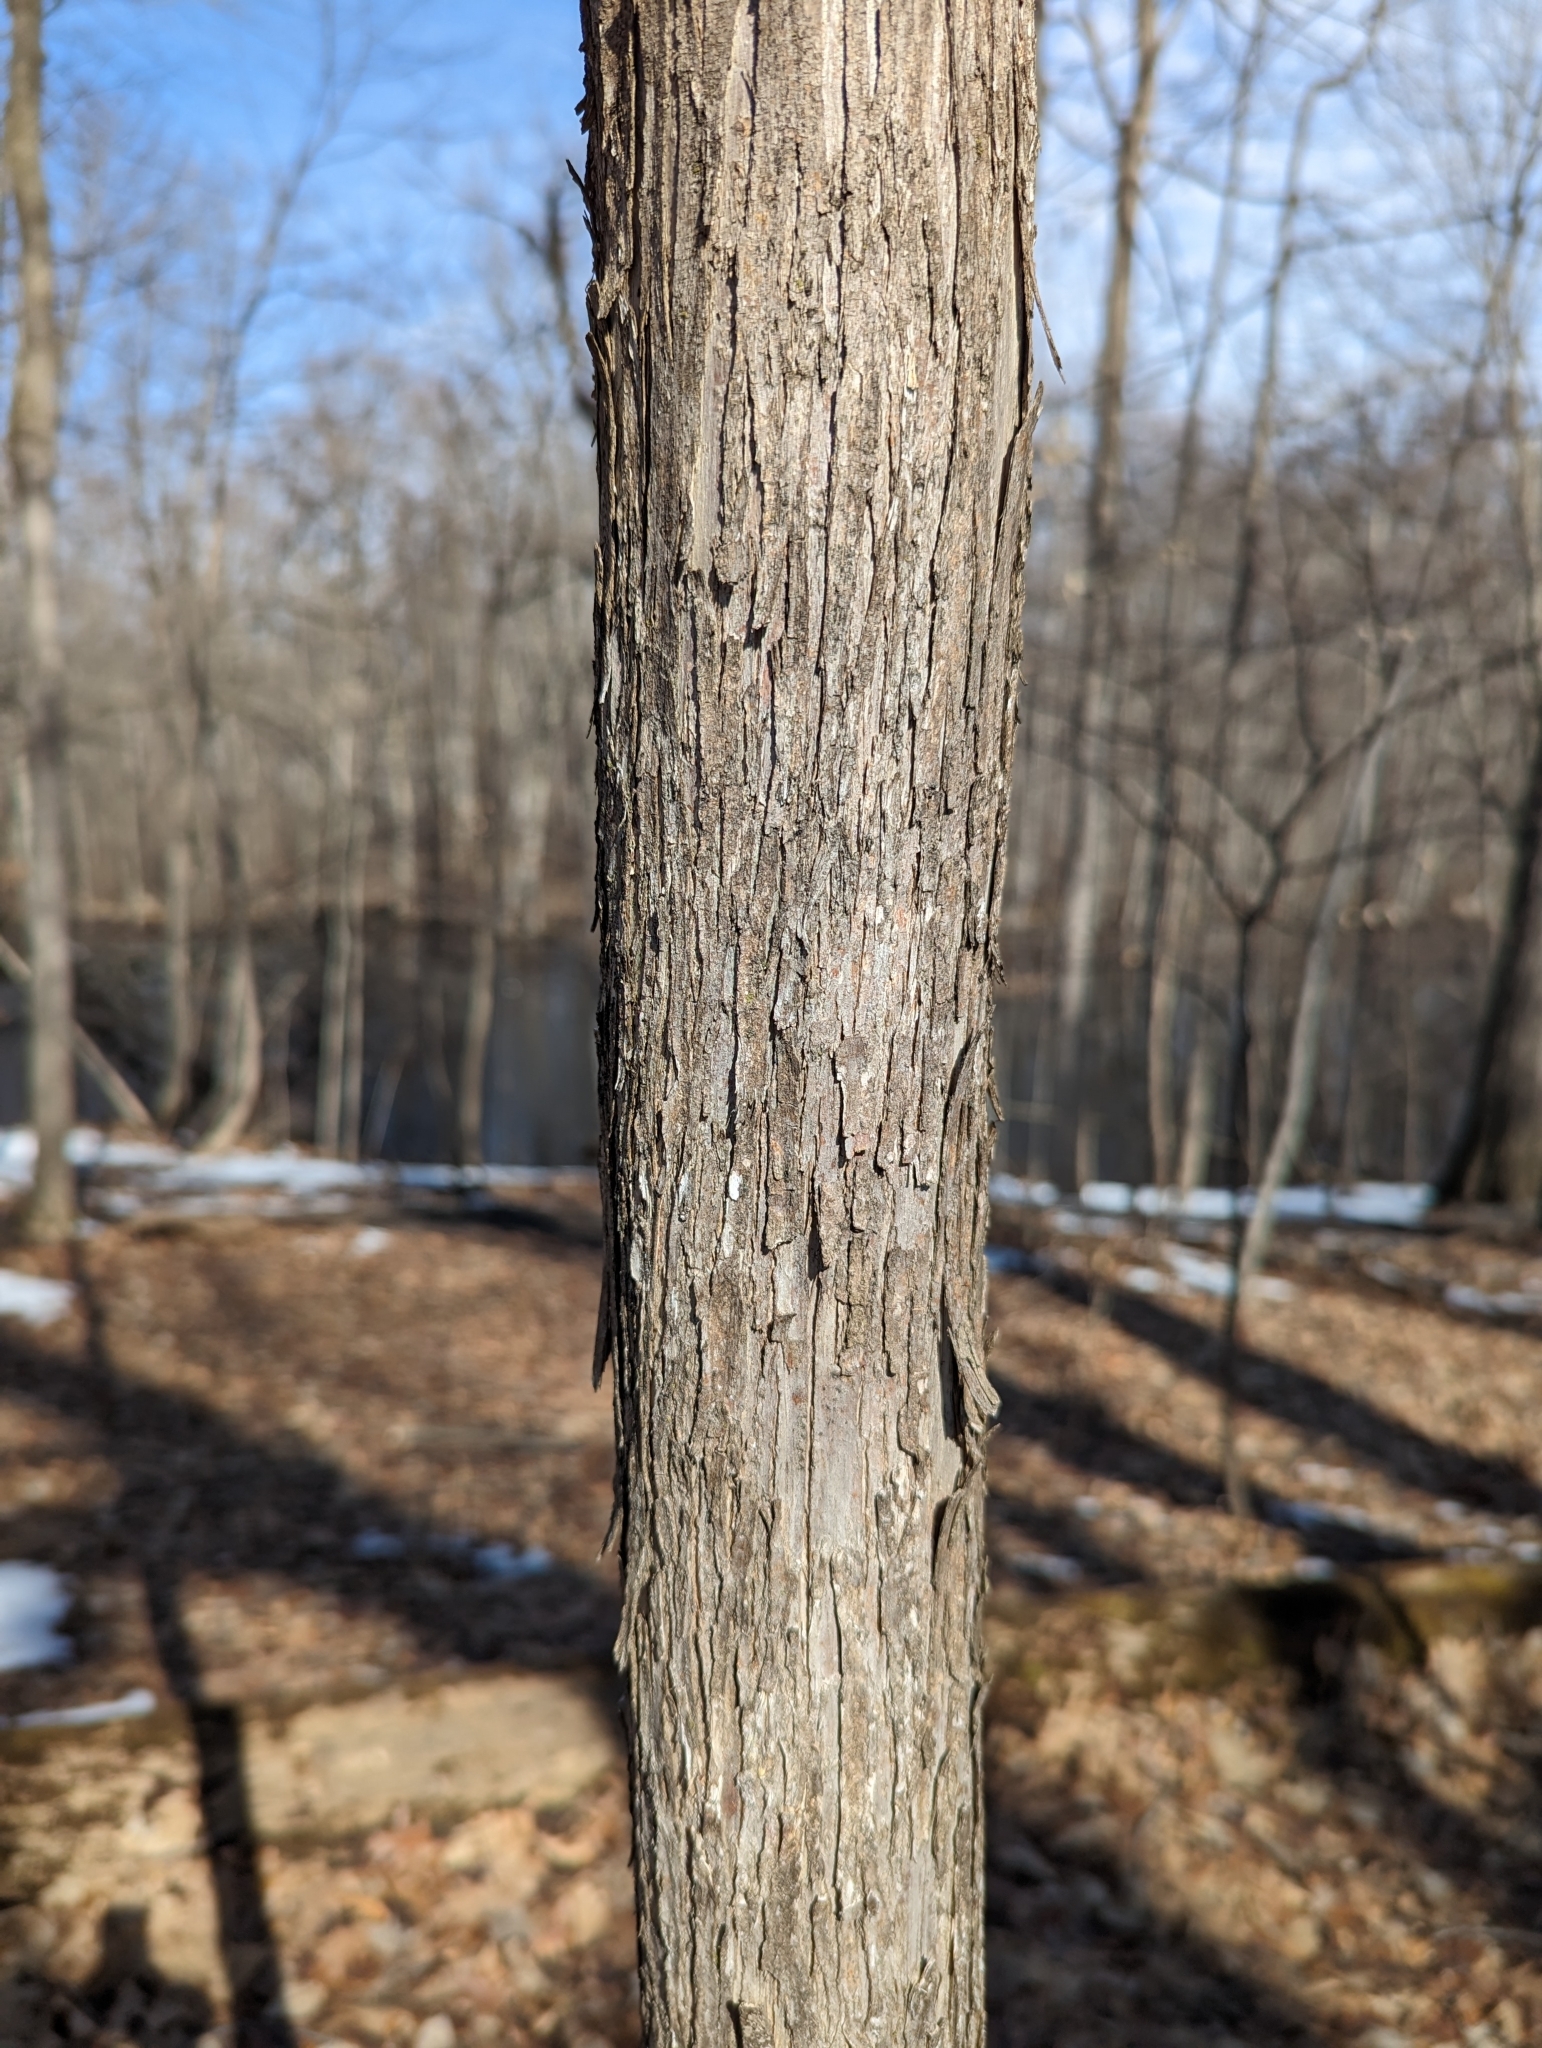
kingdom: Plantae
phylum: Tracheophyta
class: Magnoliopsida
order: Fagales
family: Betulaceae
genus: Ostrya
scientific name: Ostrya virginiana
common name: Ironwood
